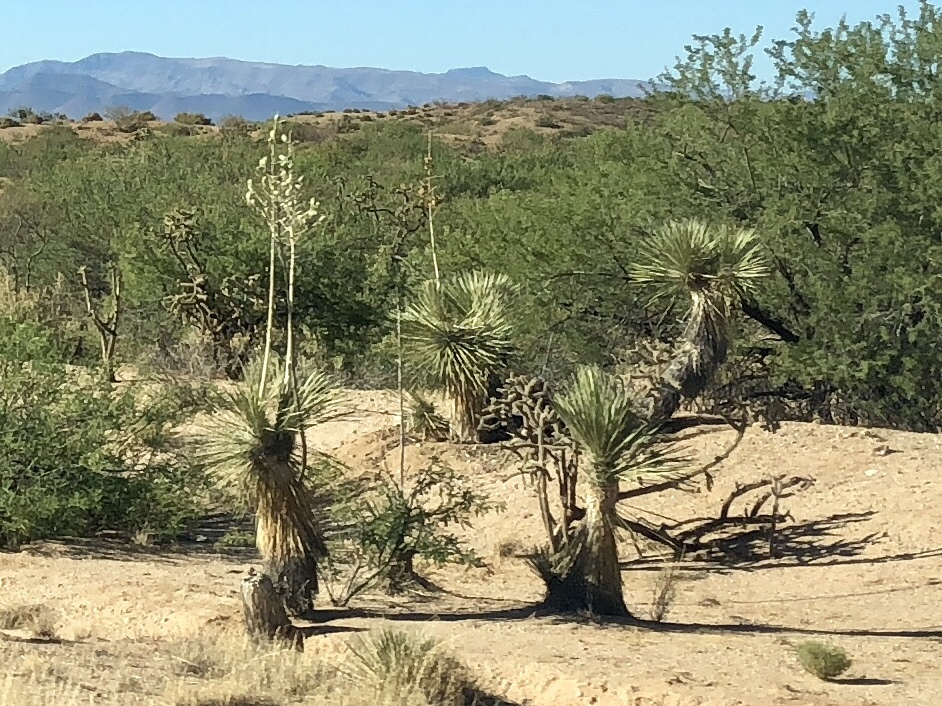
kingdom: Plantae
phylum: Tracheophyta
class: Liliopsida
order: Asparagales
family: Asparagaceae
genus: Yucca
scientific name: Yucca elata
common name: Palmella
